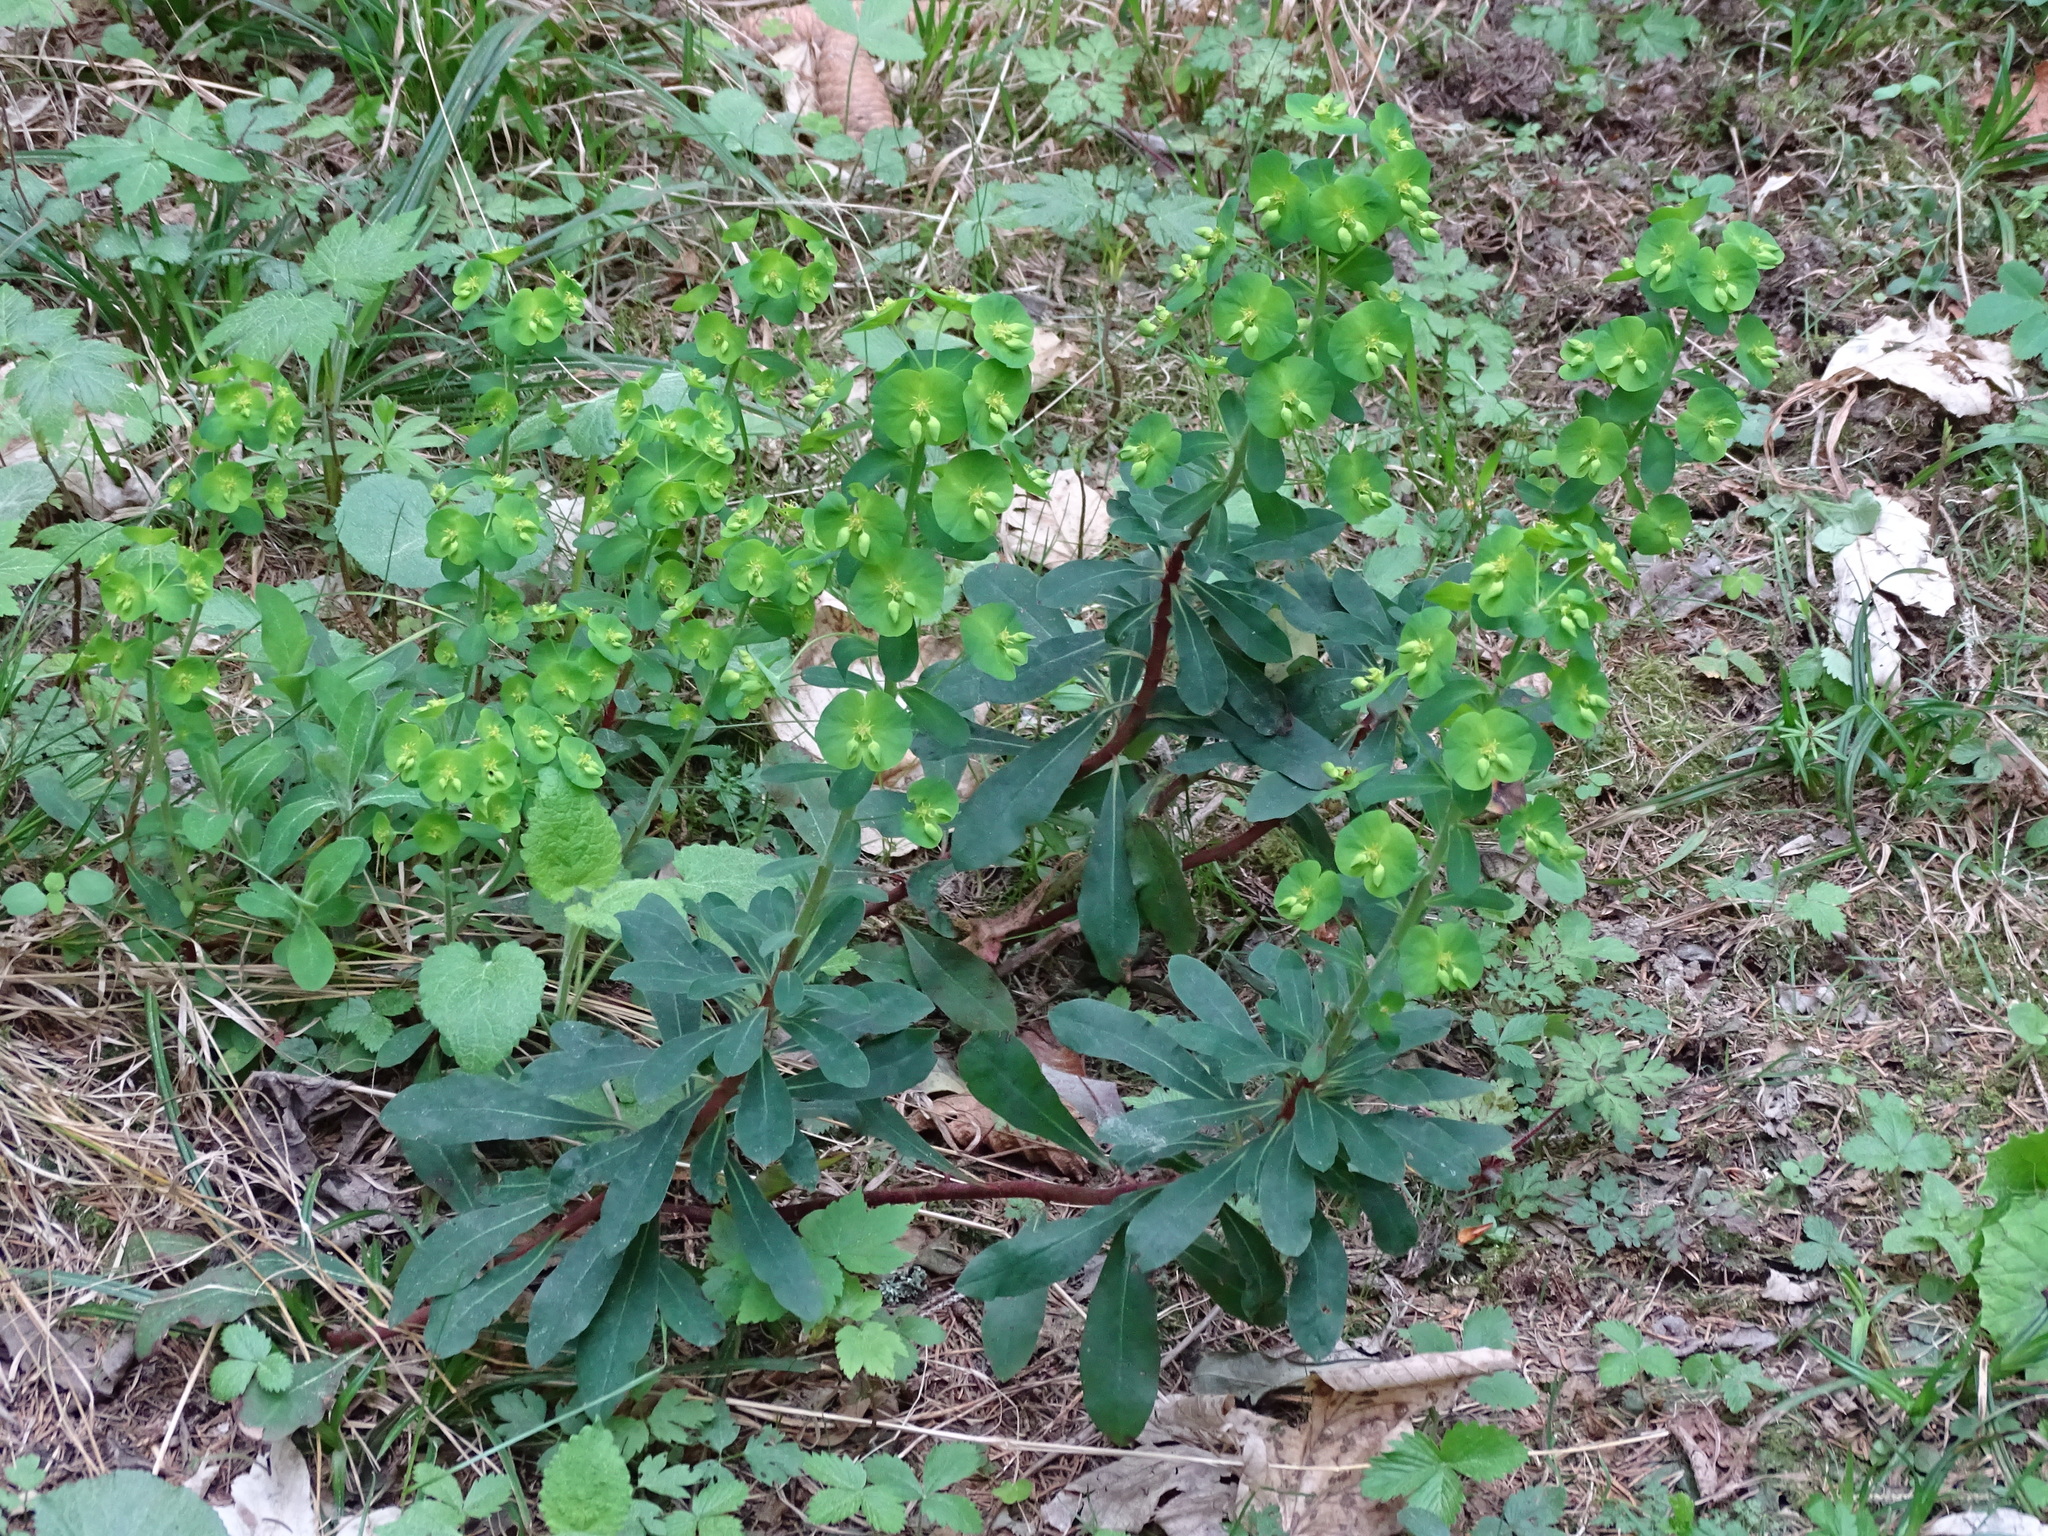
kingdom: Plantae
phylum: Tracheophyta
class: Magnoliopsida
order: Malpighiales
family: Euphorbiaceae
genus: Euphorbia
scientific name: Euphorbia amygdaloides
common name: Wood spurge
